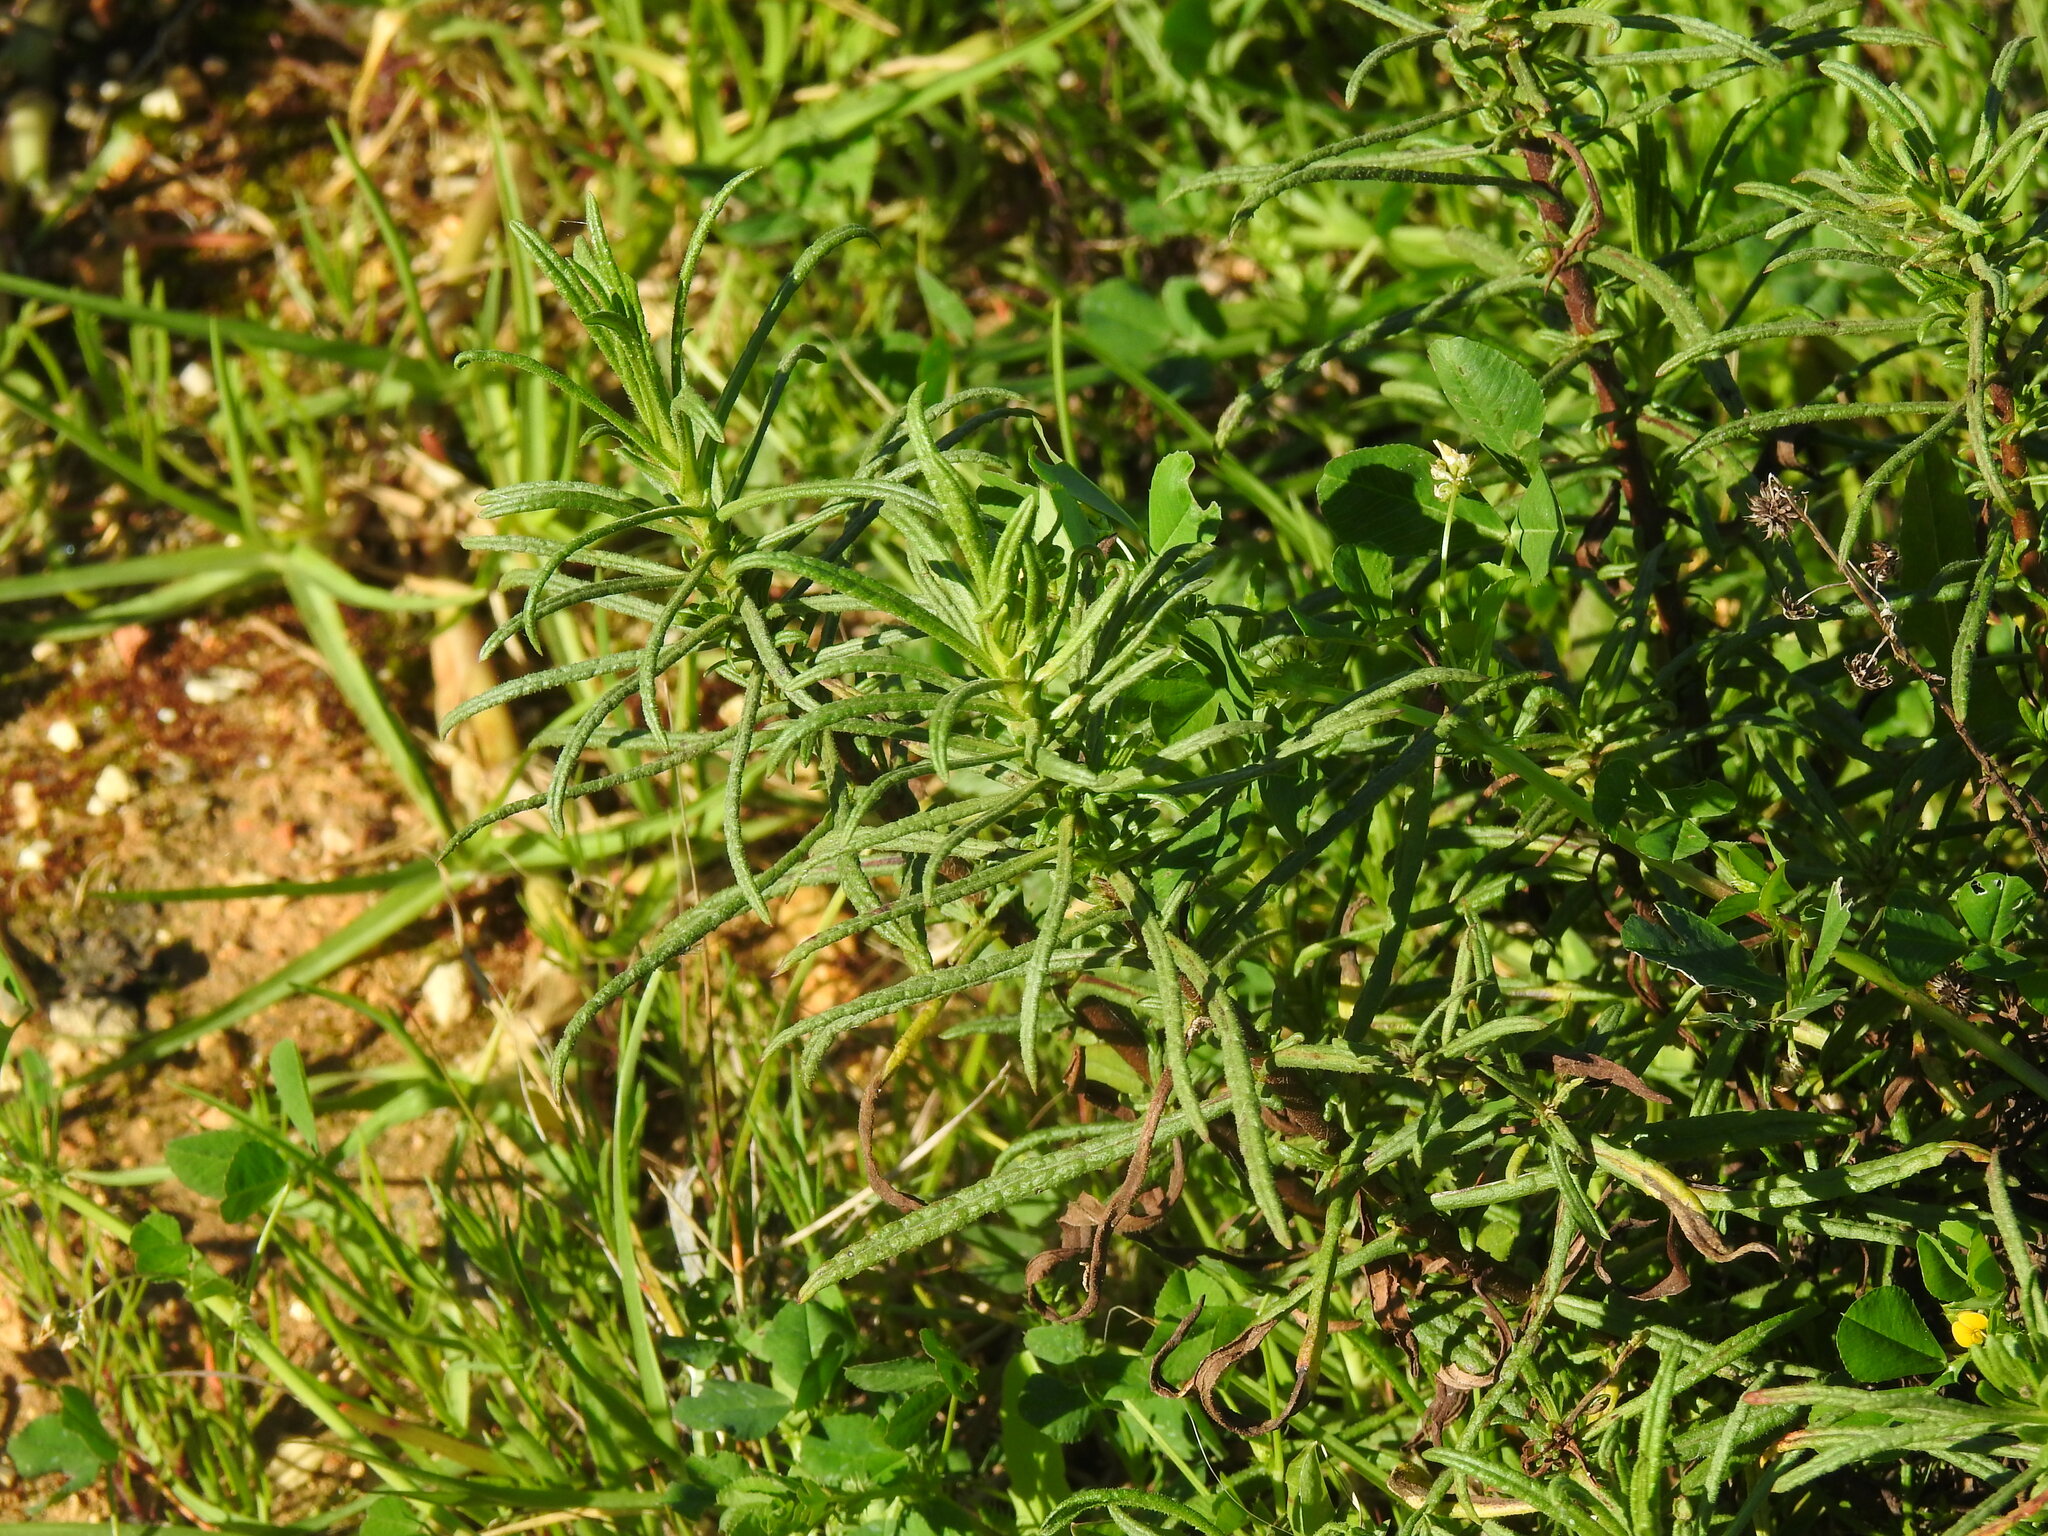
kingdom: Plantae
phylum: Tracheophyta
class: Magnoliopsida
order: Asterales
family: Asteraceae
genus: Dittrichia
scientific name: Dittrichia viscosa
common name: Woody fleabane
